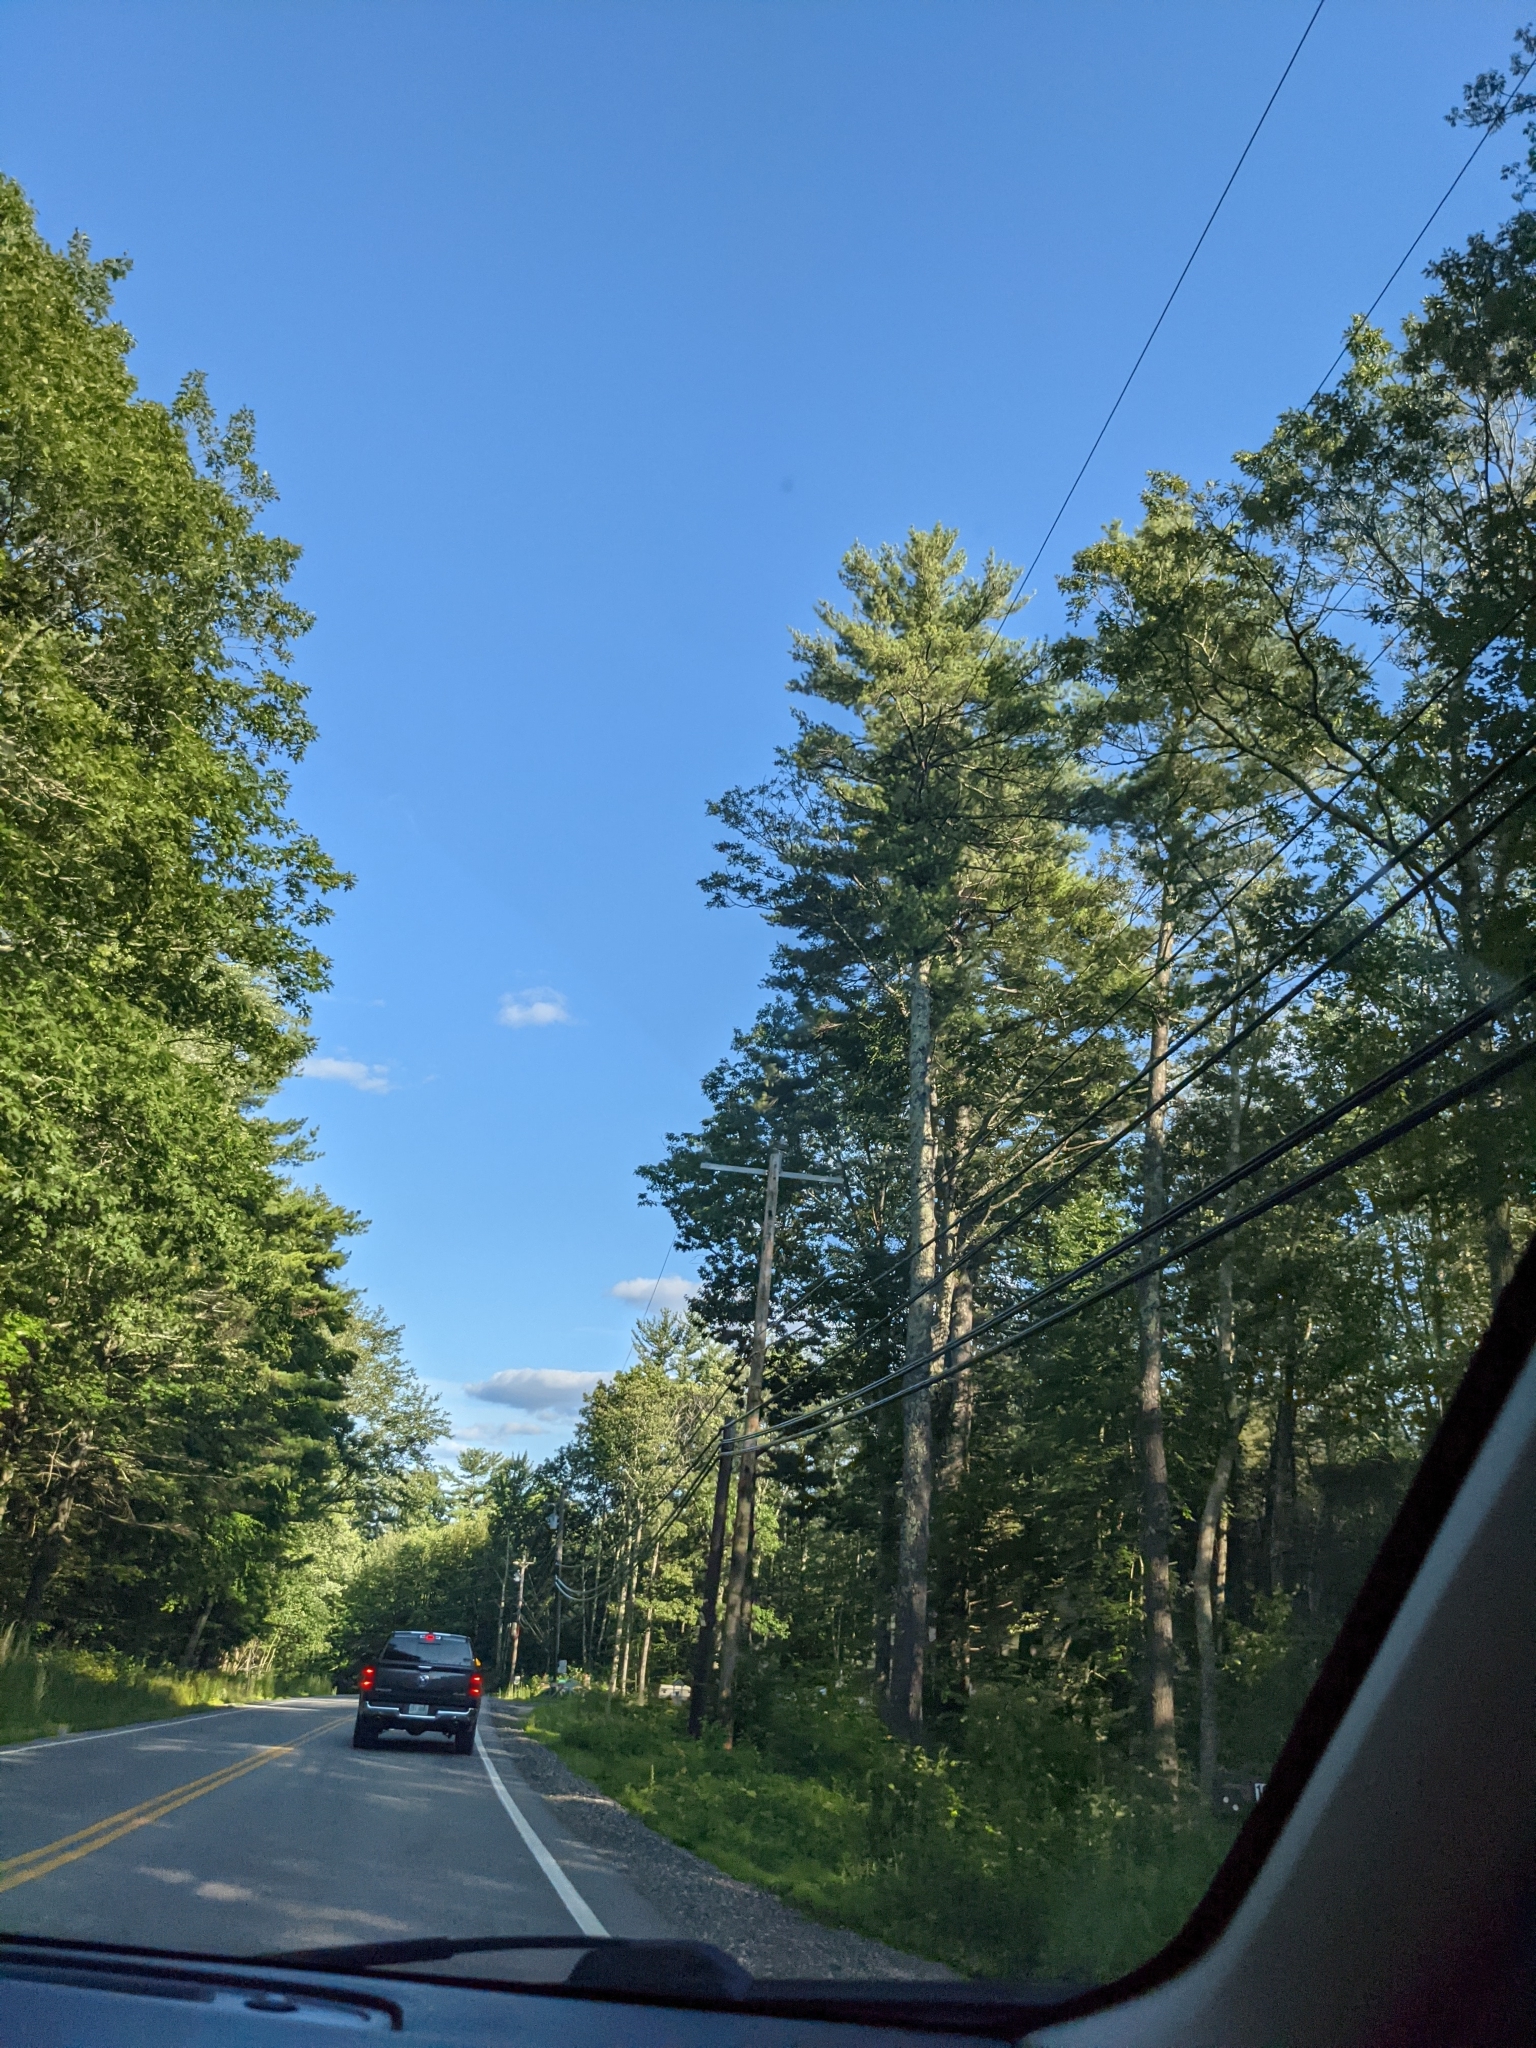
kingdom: Plantae
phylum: Tracheophyta
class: Pinopsida
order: Pinales
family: Pinaceae
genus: Pinus
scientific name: Pinus strobus
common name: Weymouth pine
